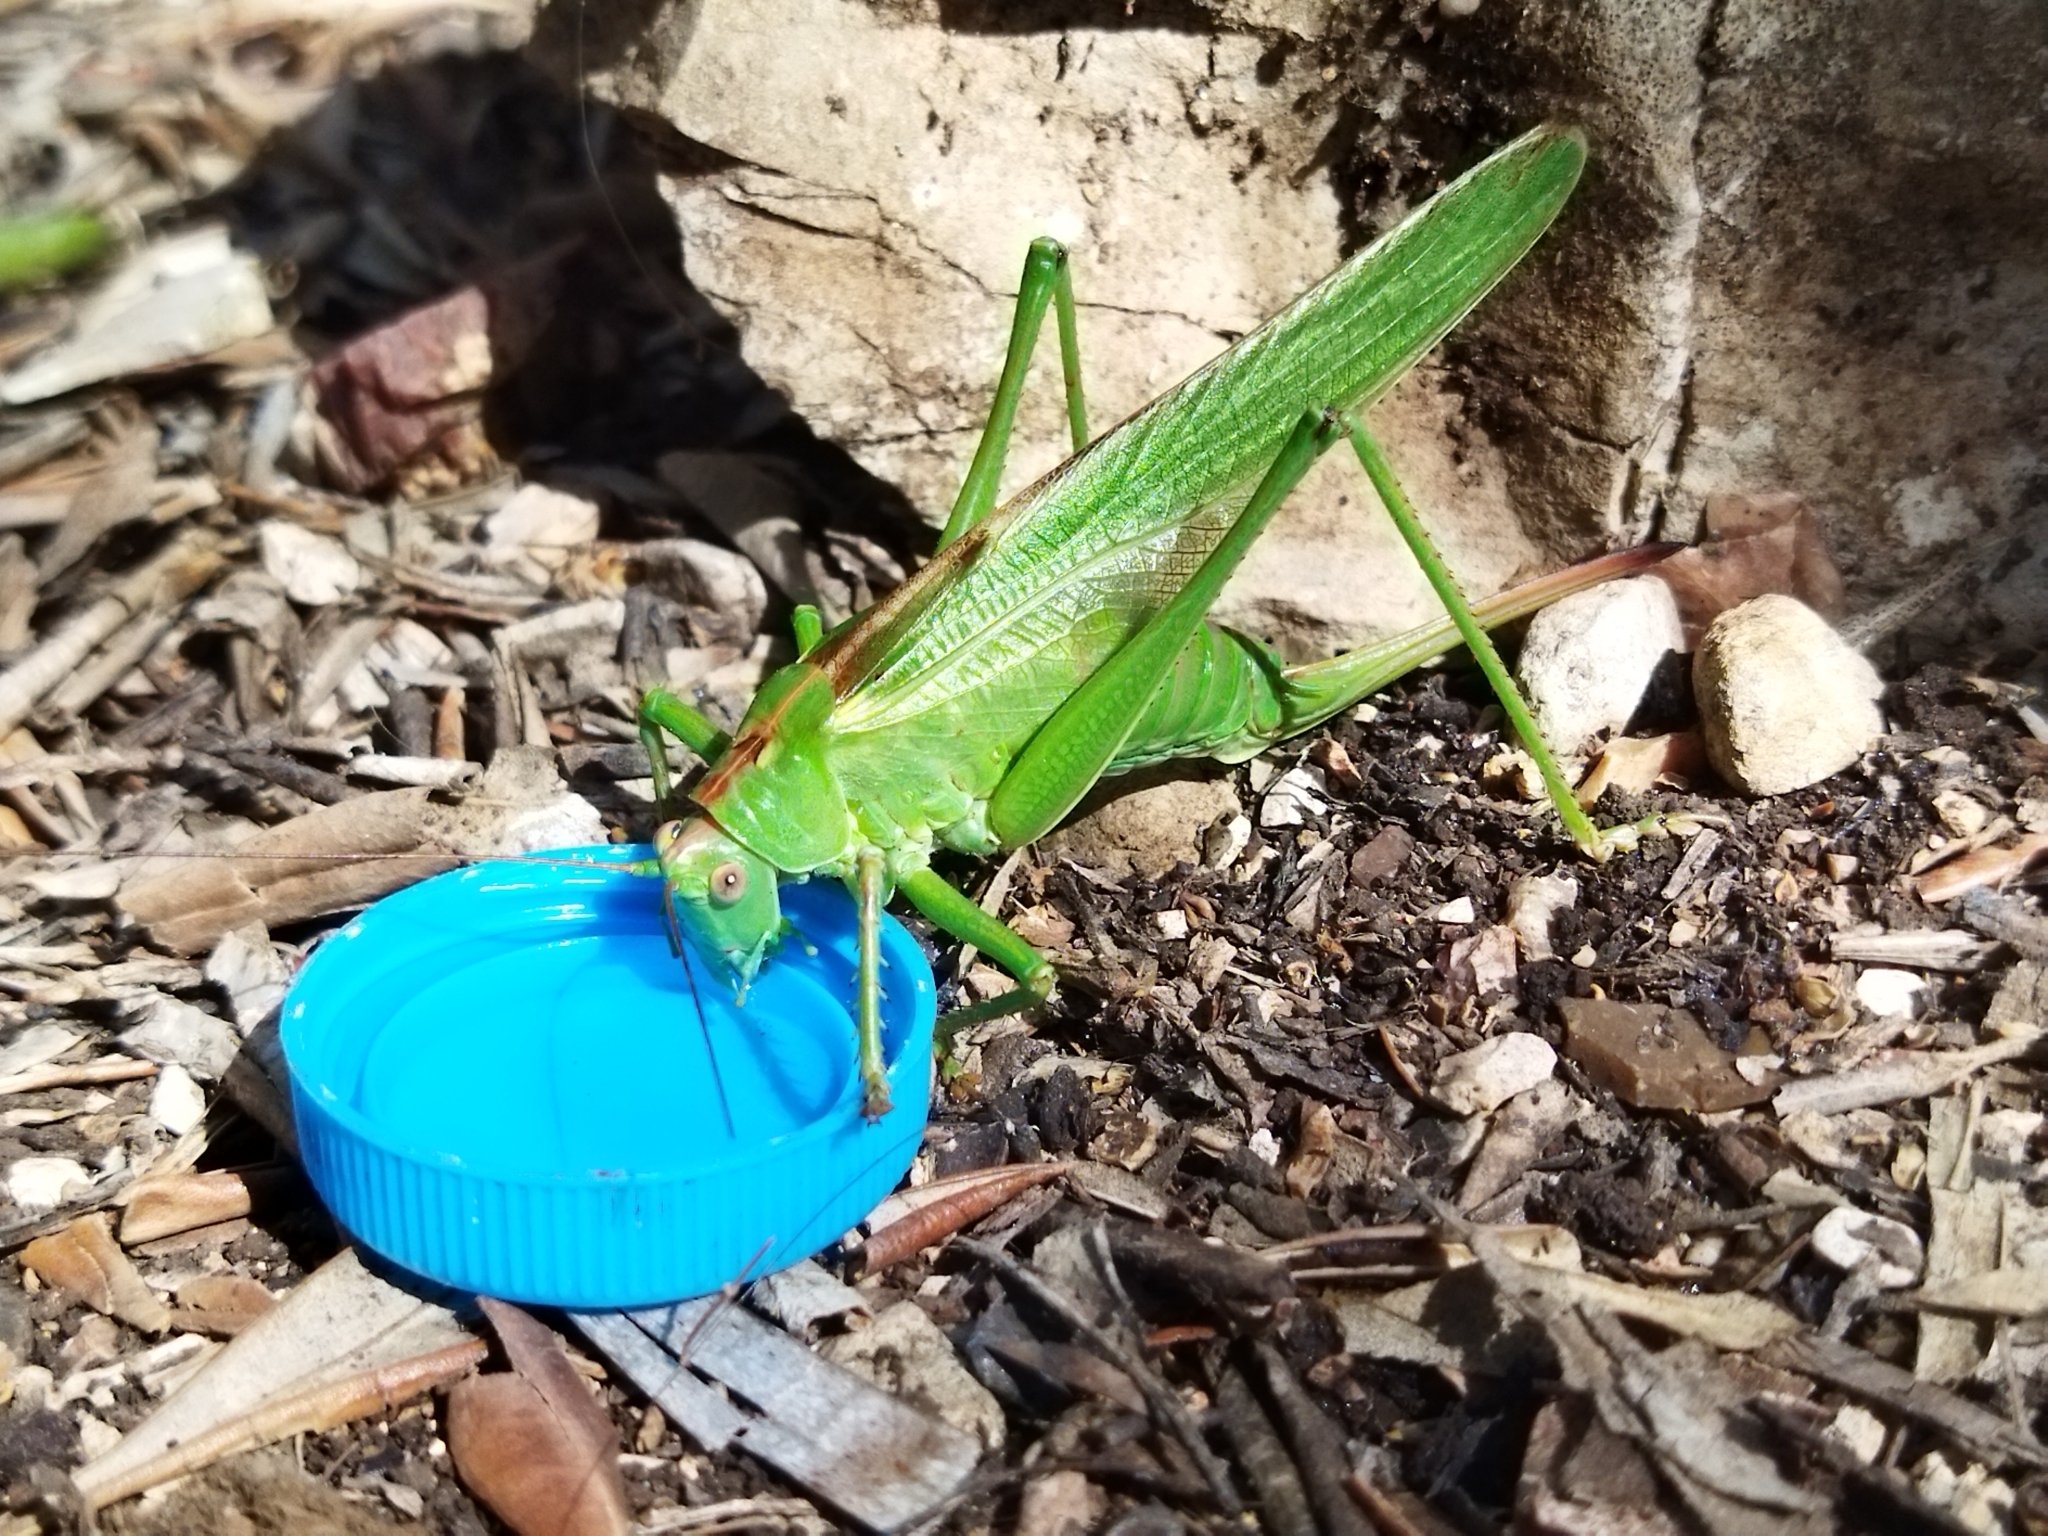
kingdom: Animalia
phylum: Arthropoda
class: Insecta
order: Orthoptera
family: Tettigoniidae
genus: Tettigonia
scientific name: Tettigonia viridissima
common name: Great green bush-cricket
